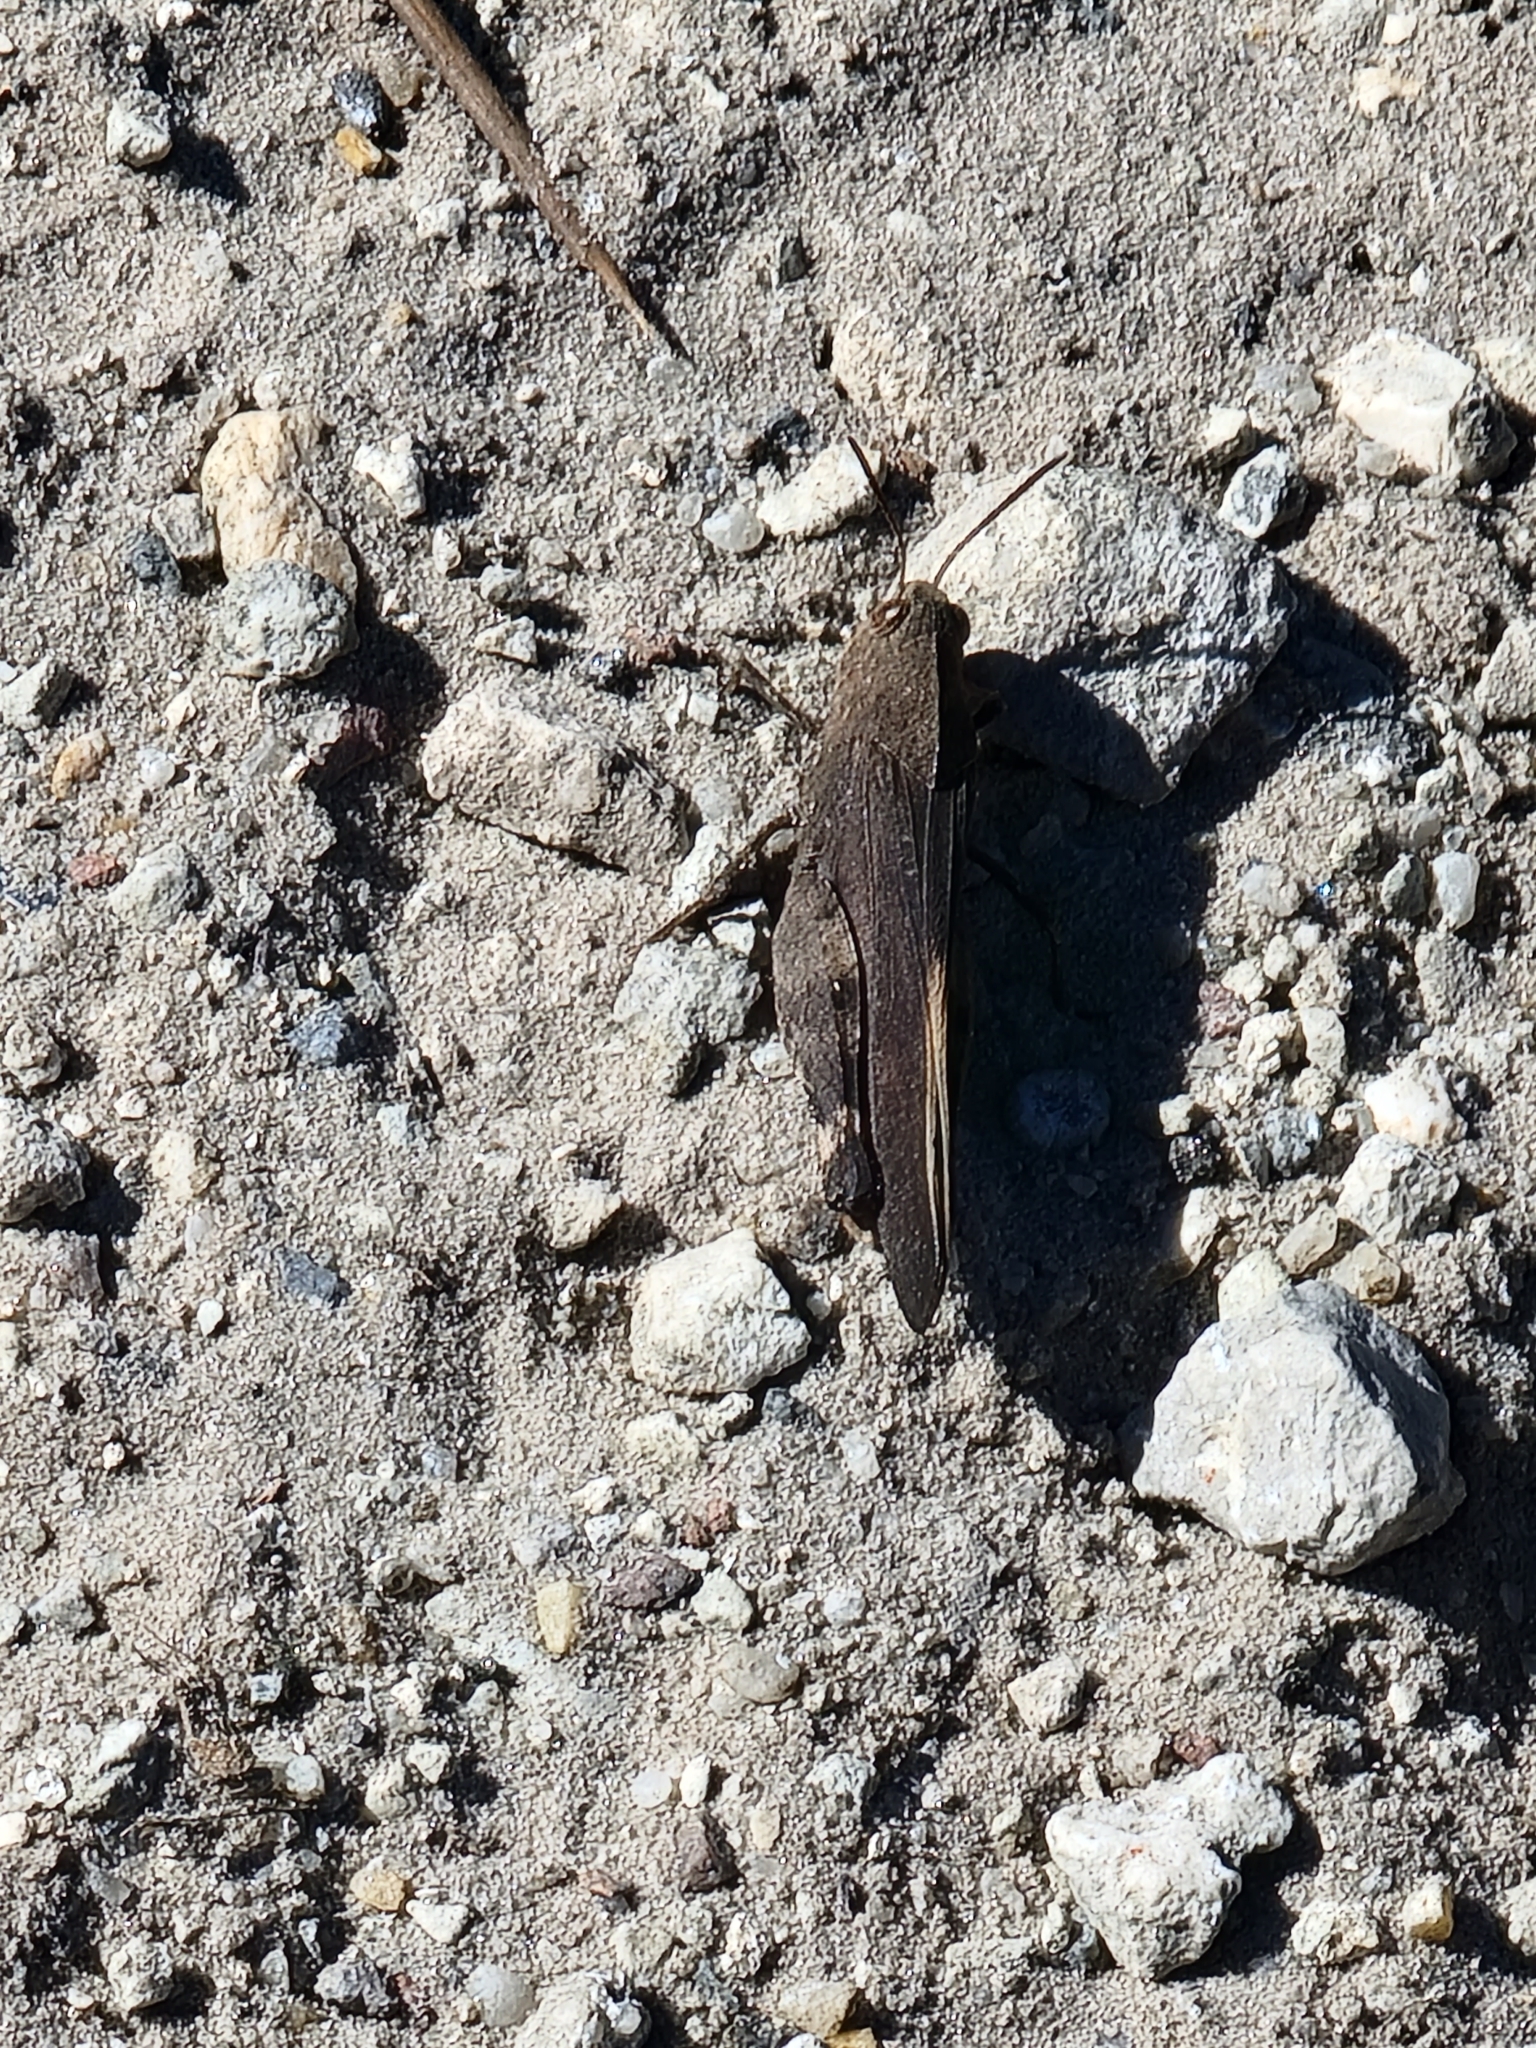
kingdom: Animalia
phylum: Arthropoda
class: Insecta
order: Orthoptera
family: Acrididae
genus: Arphia
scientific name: Arphia granulata
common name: Southern yellow-winged grasshopper
